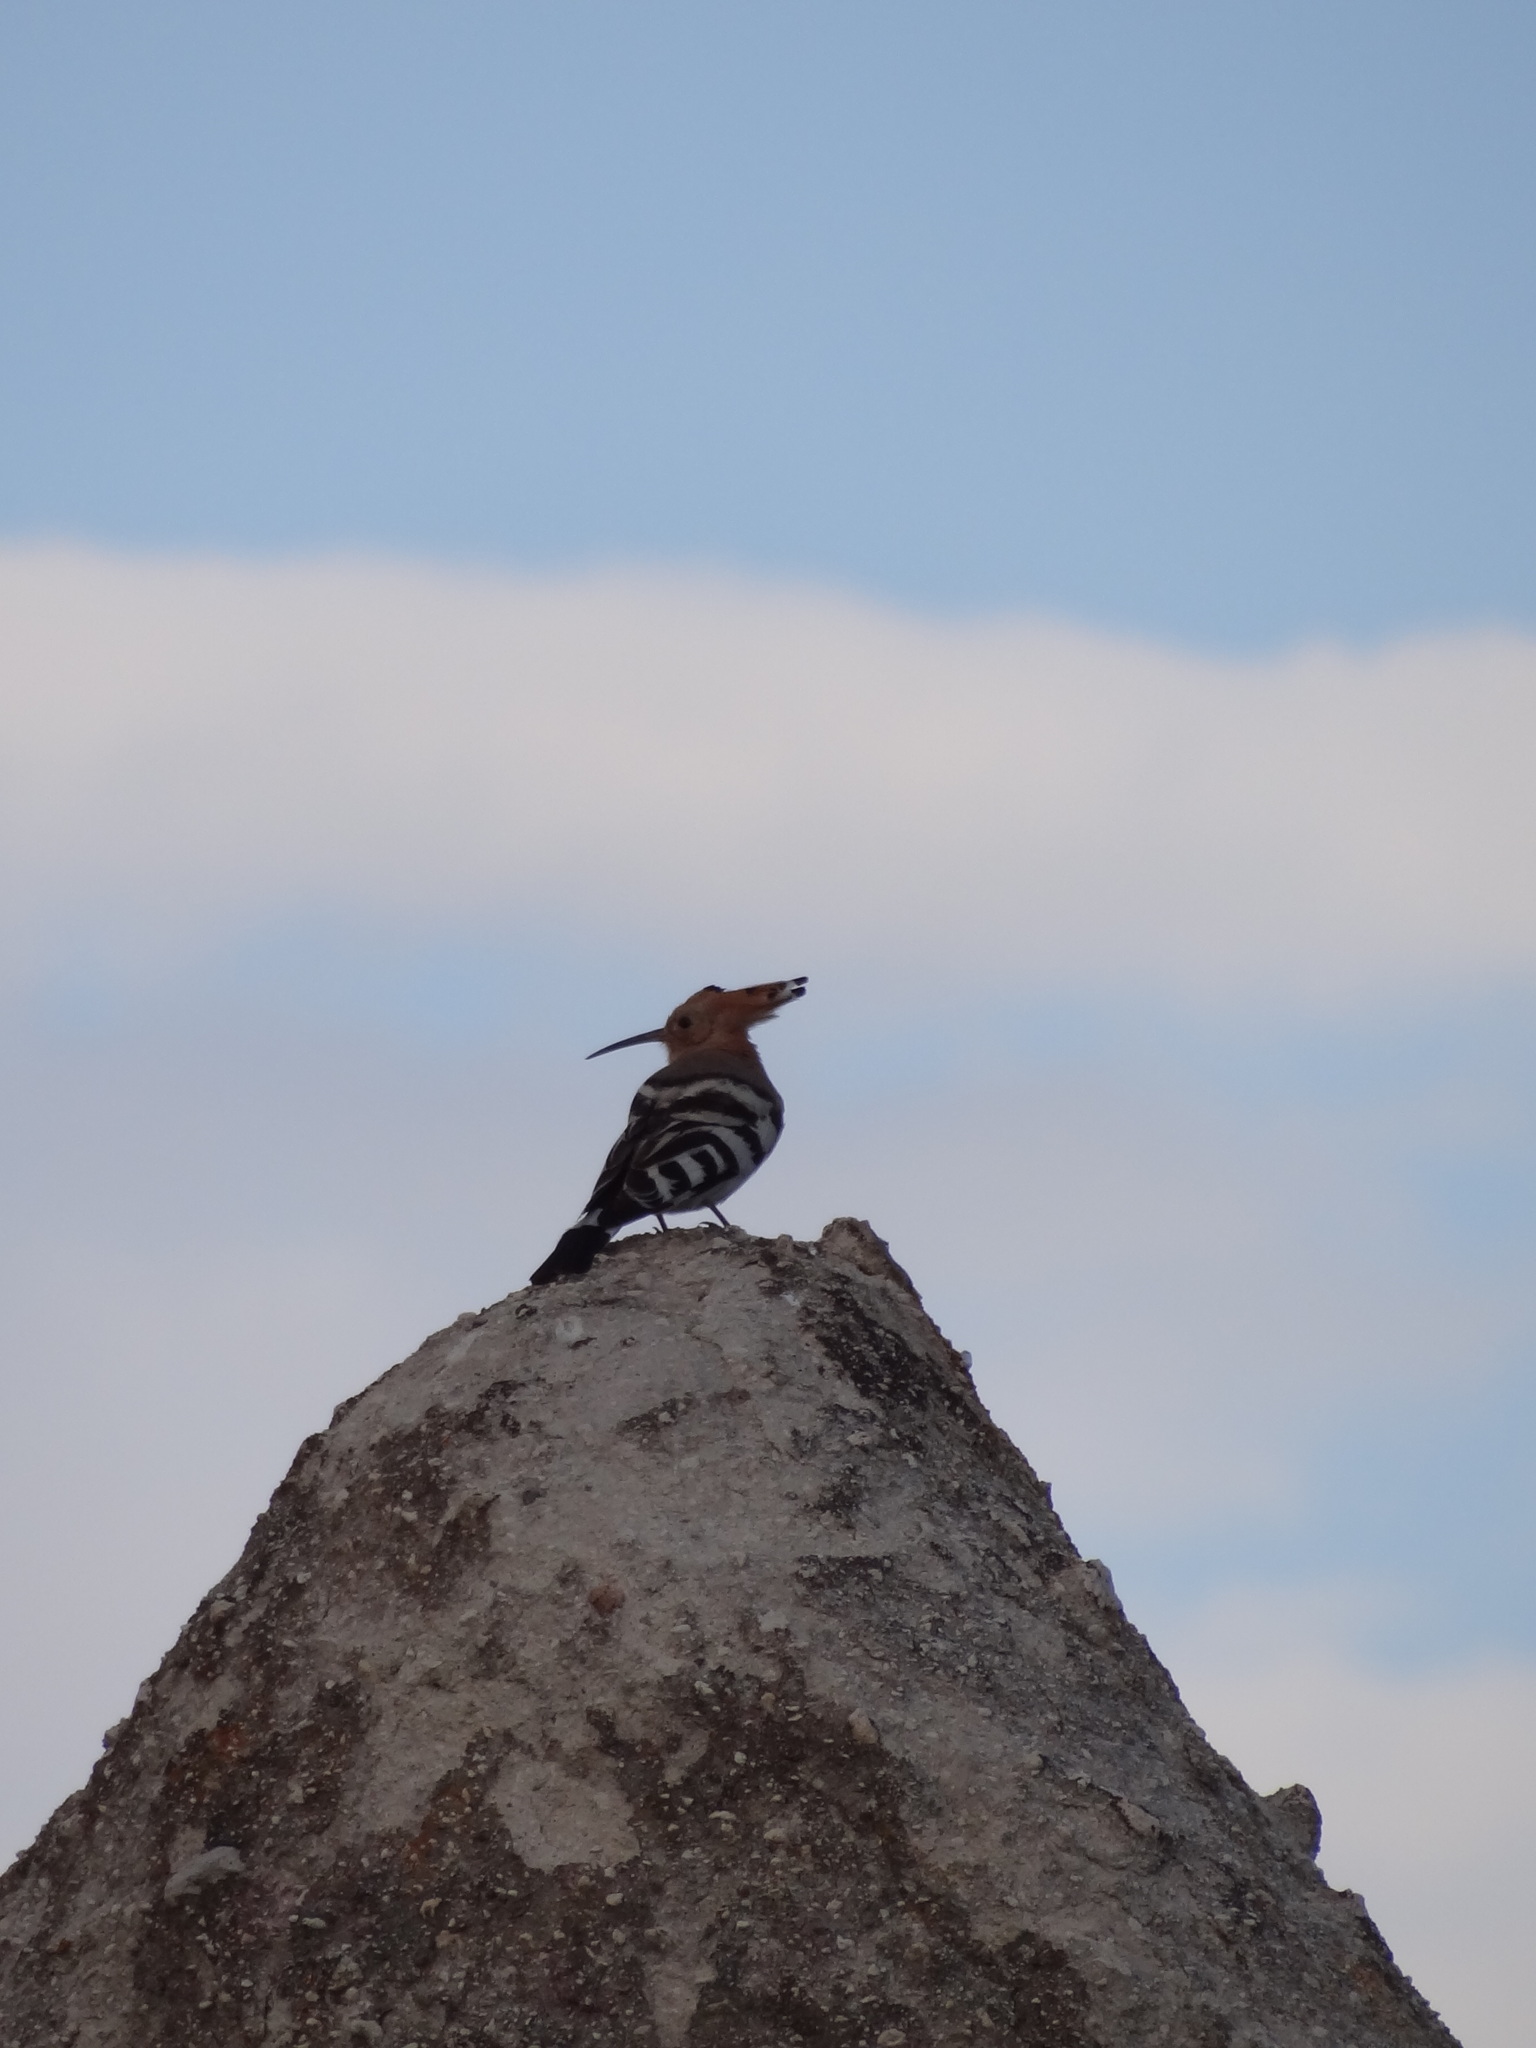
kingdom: Animalia
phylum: Chordata
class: Aves
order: Bucerotiformes
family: Upupidae
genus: Upupa
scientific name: Upupa epops
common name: Eurasian hoopoe
